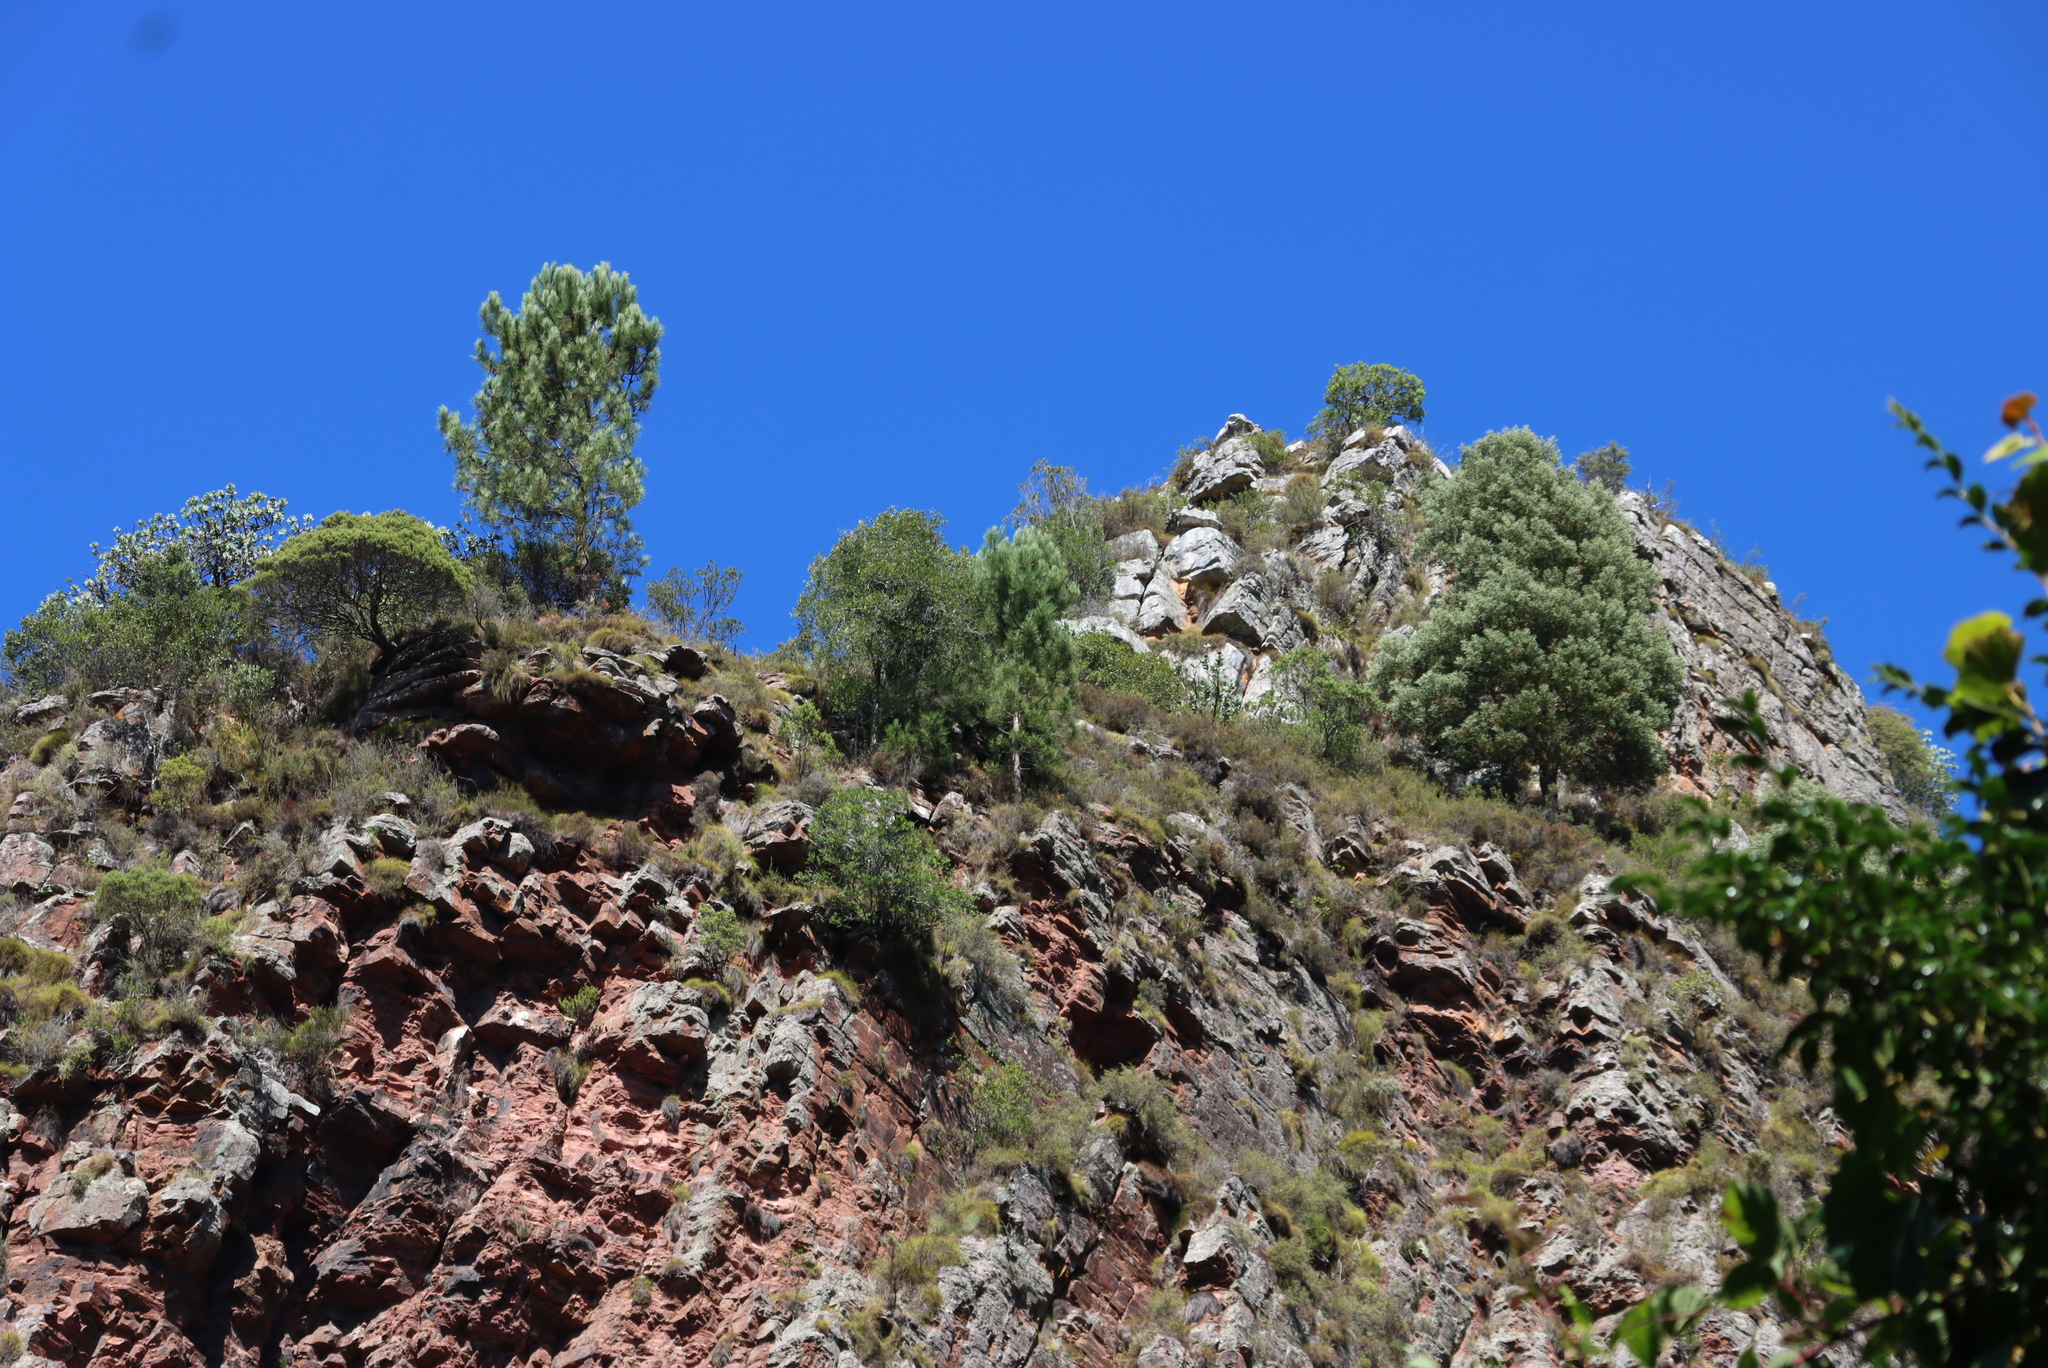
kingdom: Plantae
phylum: Tracheophyta
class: Magnoliopsida
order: Fabales
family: Fabaceae
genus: Acacia
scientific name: Acacia melanoxylon
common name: Blackwood
